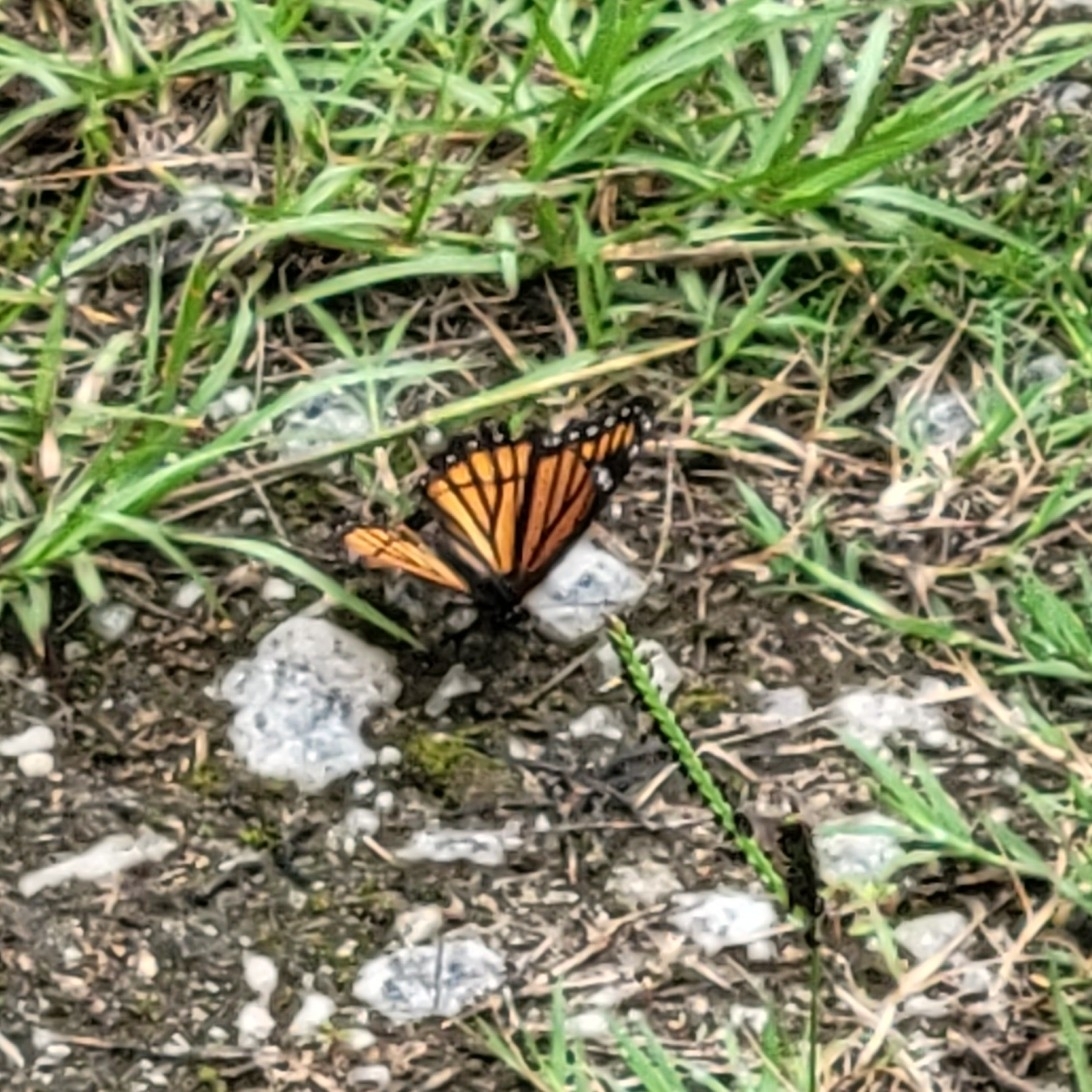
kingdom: Animalia
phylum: Arthropoda
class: Insecta
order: Lepidoptera
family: Nymphalidae
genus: Limenitis
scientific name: Limenitis archippus
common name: Viceroy
